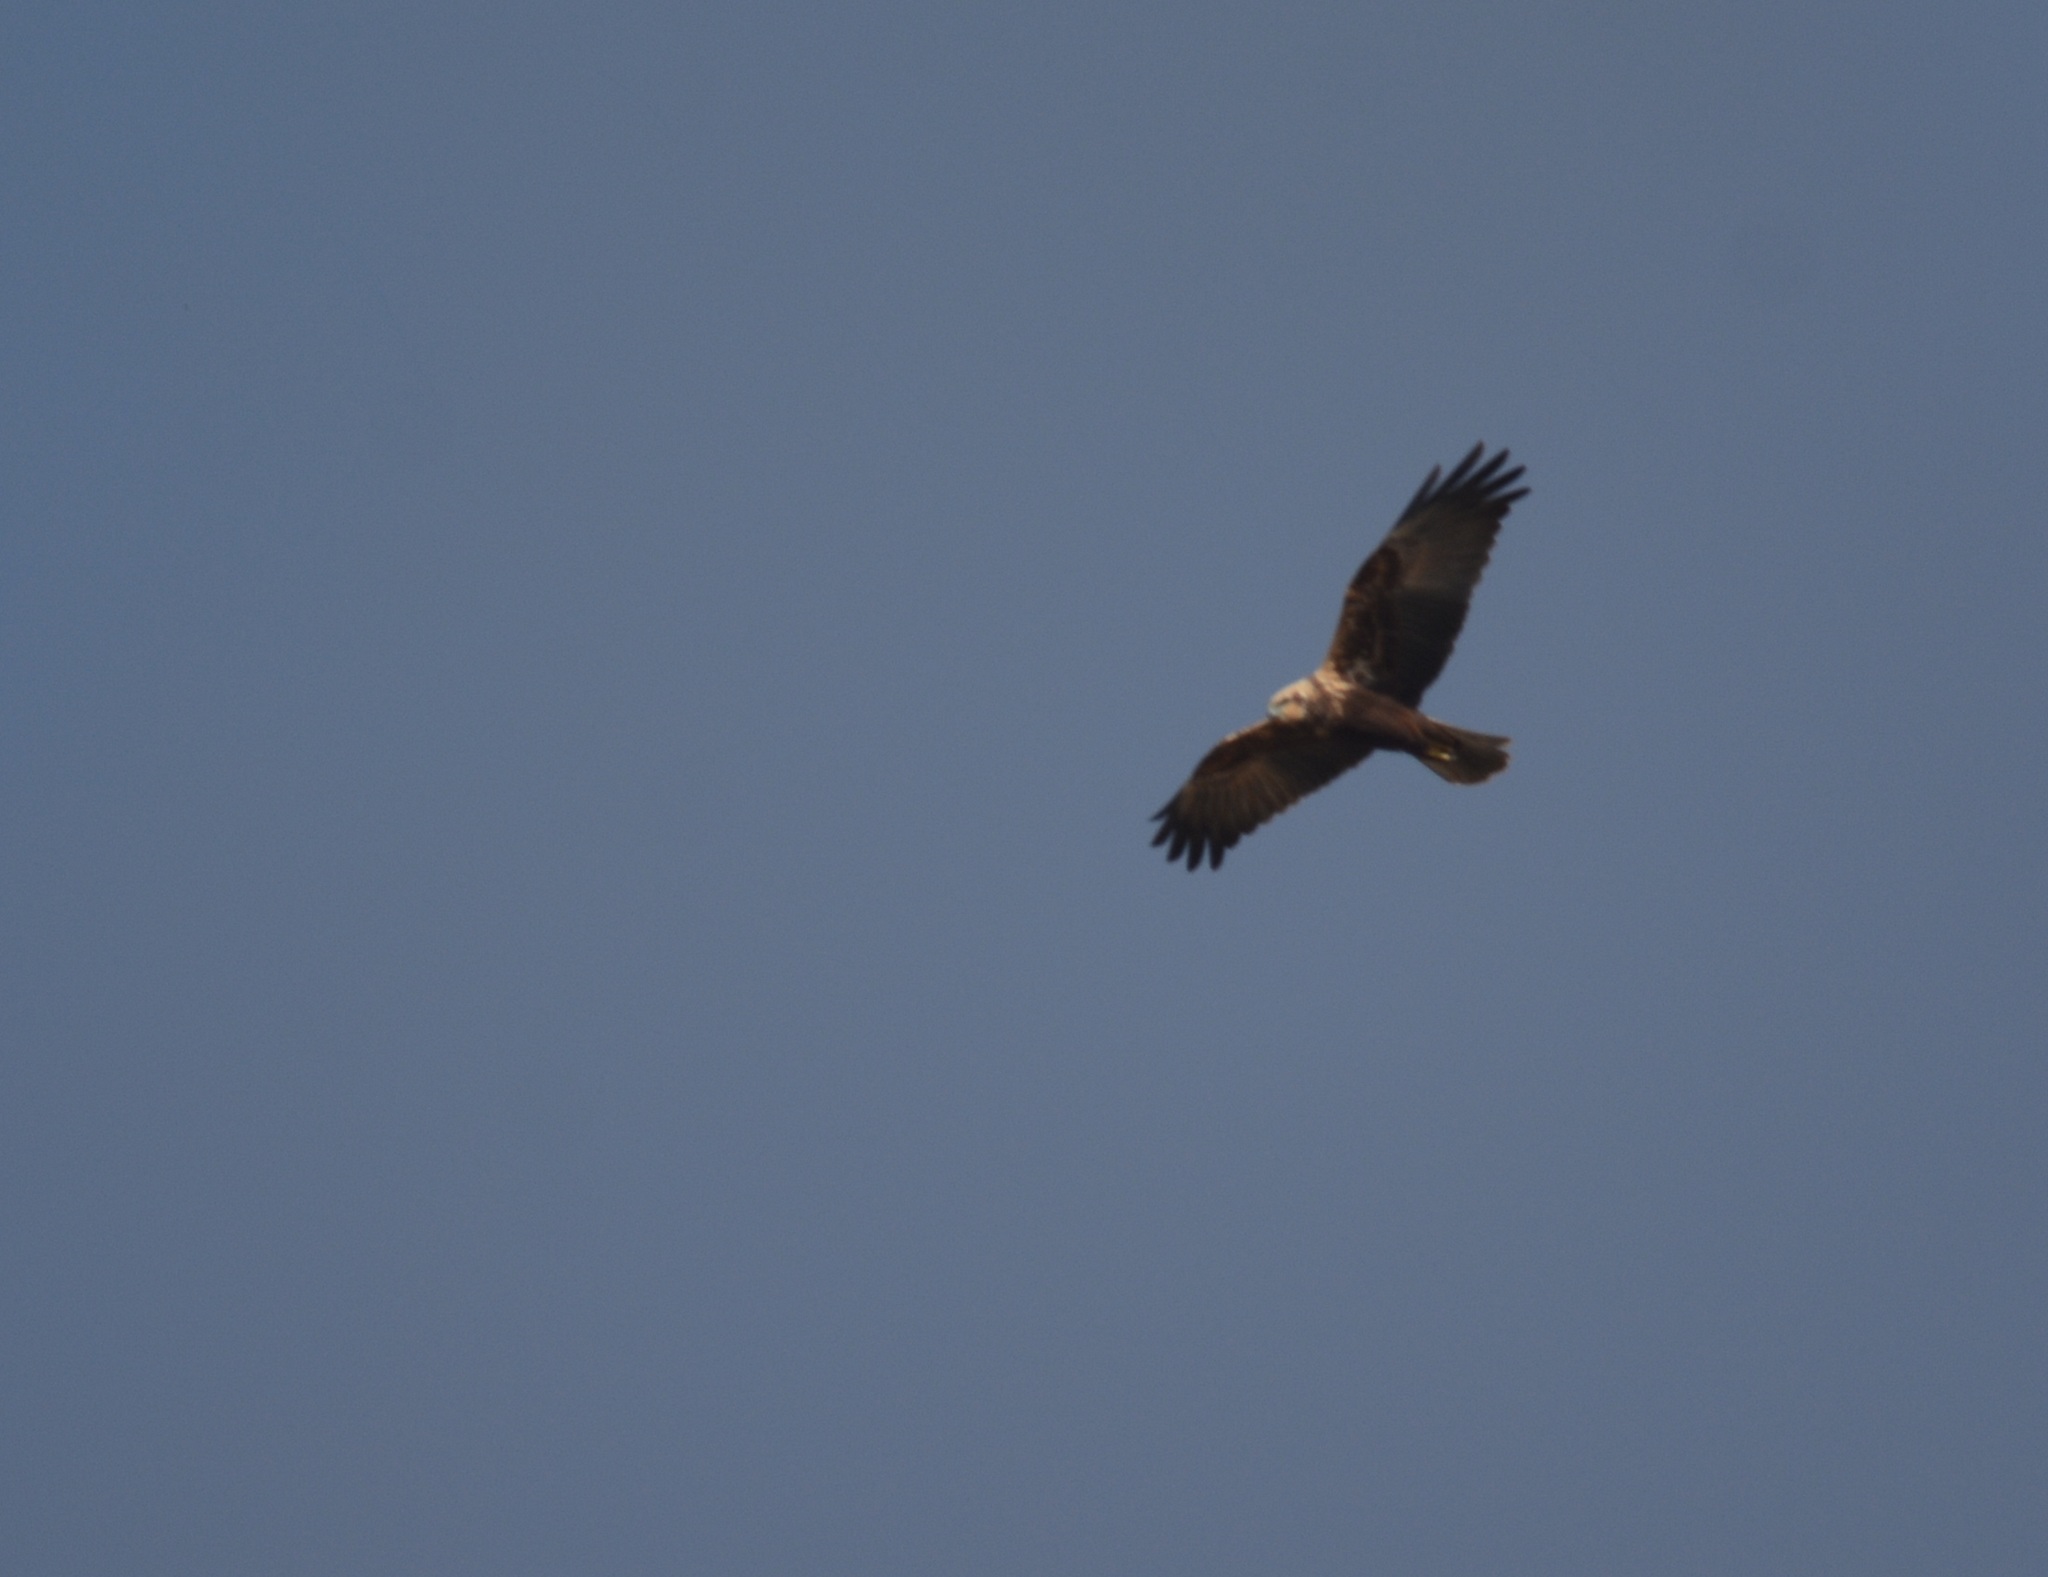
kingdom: Animalia
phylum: Chordata
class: Aves
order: Accipitriformes
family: Accipitridae
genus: Circus
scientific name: Circus aeruginosus
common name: Western marsh harrier
